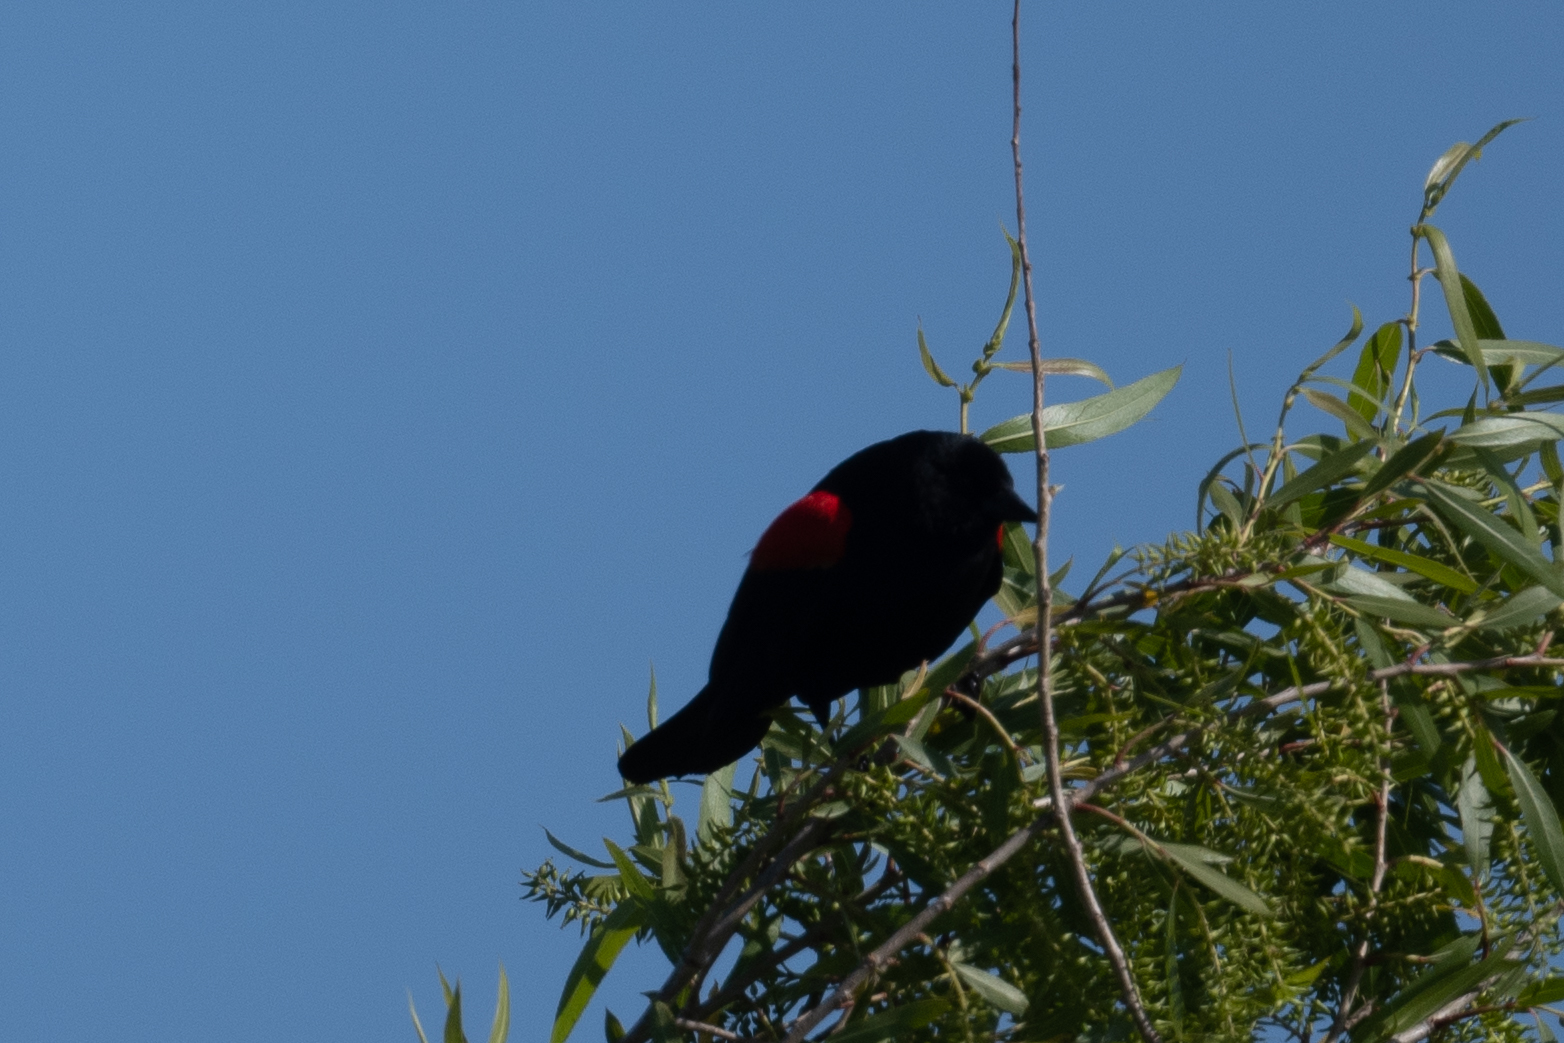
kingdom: Animalia
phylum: Chordata
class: Aves
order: Passeriformes
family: Icteridae
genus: Agelaius
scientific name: Agelaius phoeniceus
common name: Red-winged blackbird
